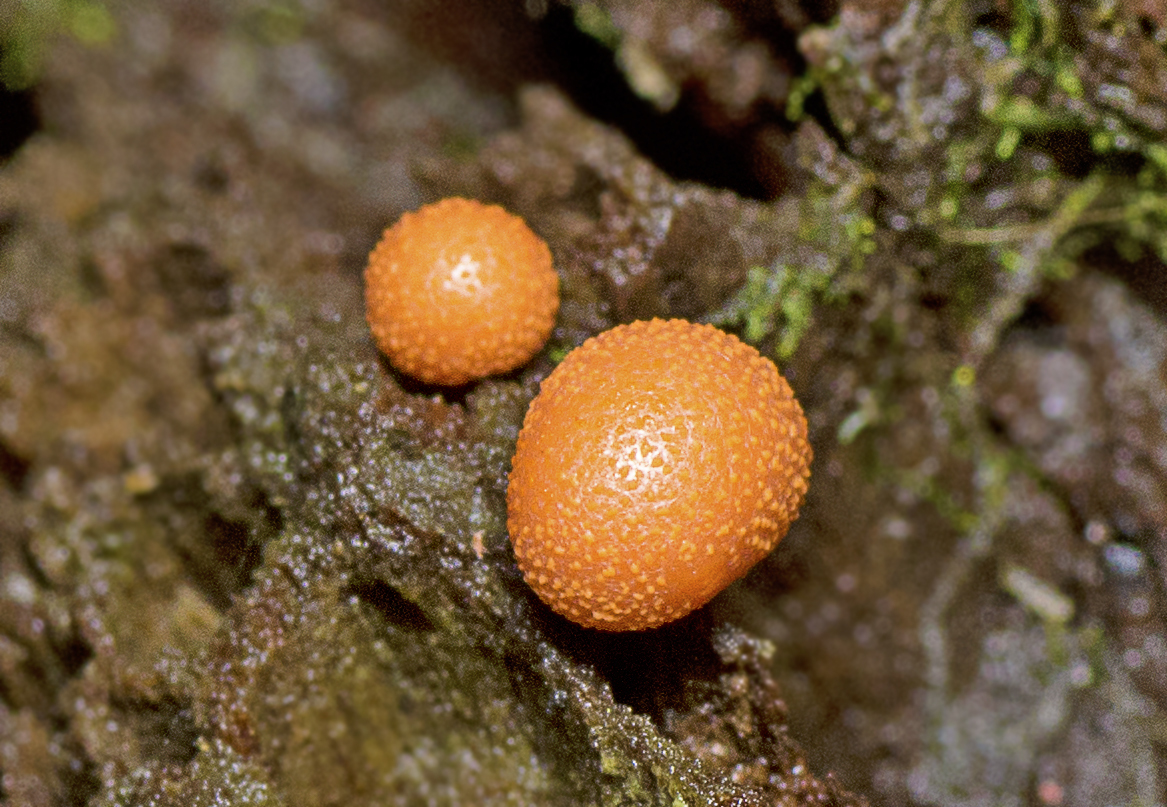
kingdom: Protozoa
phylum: Mycetozoa
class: Myxomycetes
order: Cribrariales
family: Tubiferaceae
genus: Lycogala
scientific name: Lycogala epidendrum
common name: Wolf's milk
